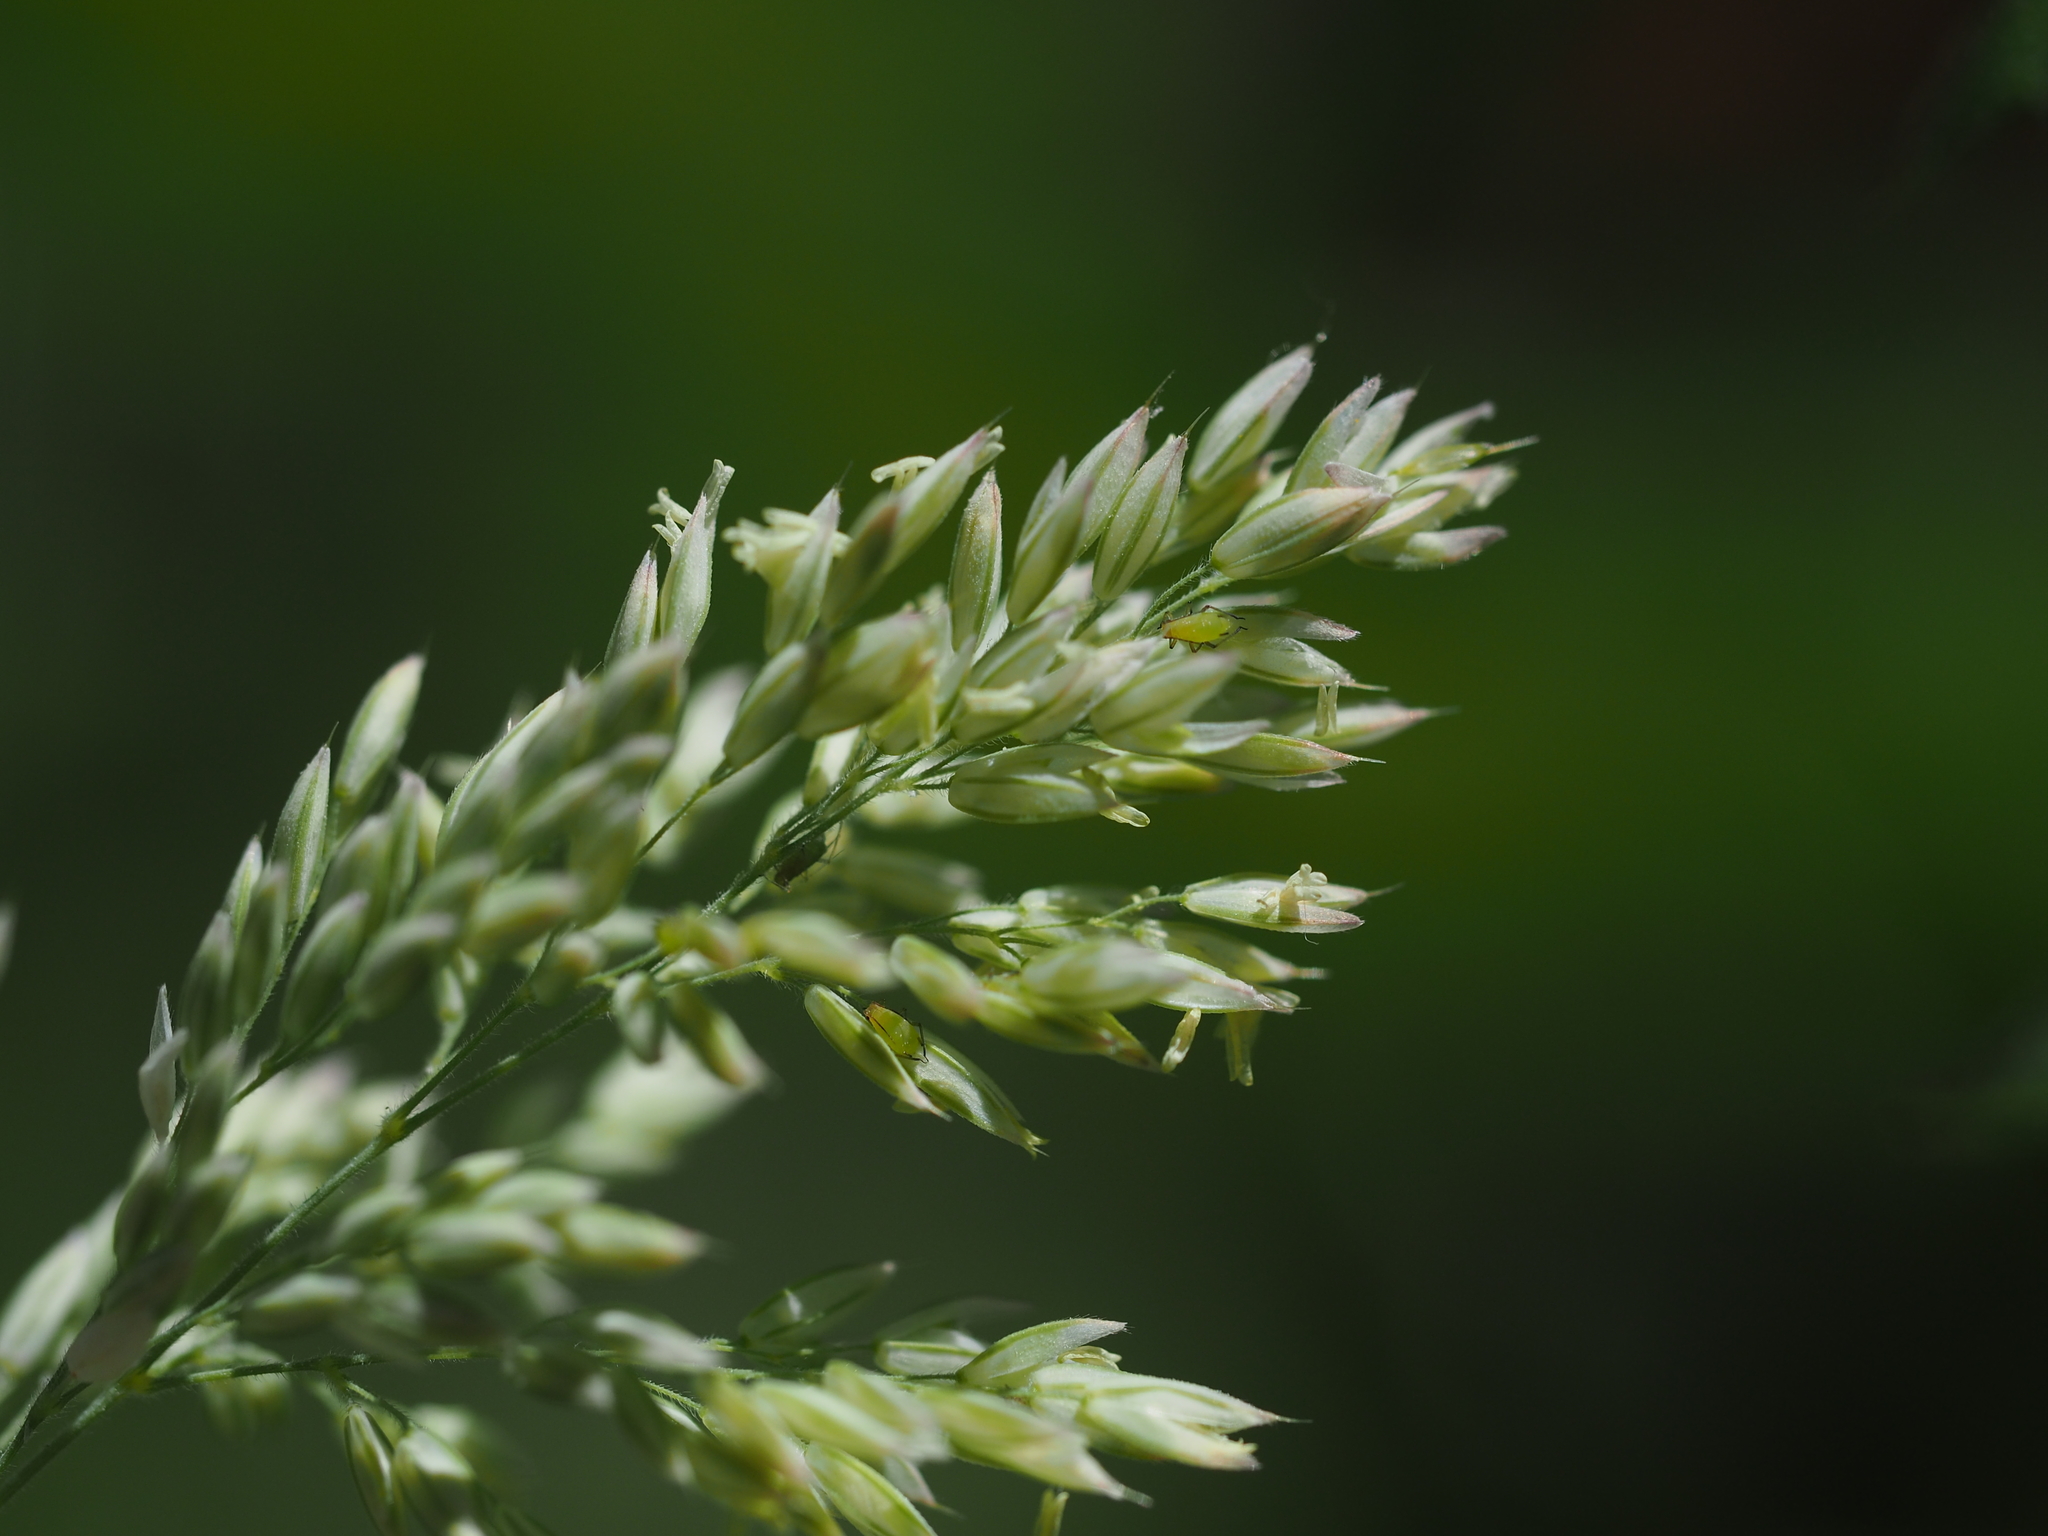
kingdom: Plantae
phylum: Tracheophyta
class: Liliopsida
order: Poales
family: Poaceae
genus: Holcus
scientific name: Holcus lanatus
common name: Yorkshire-fog
